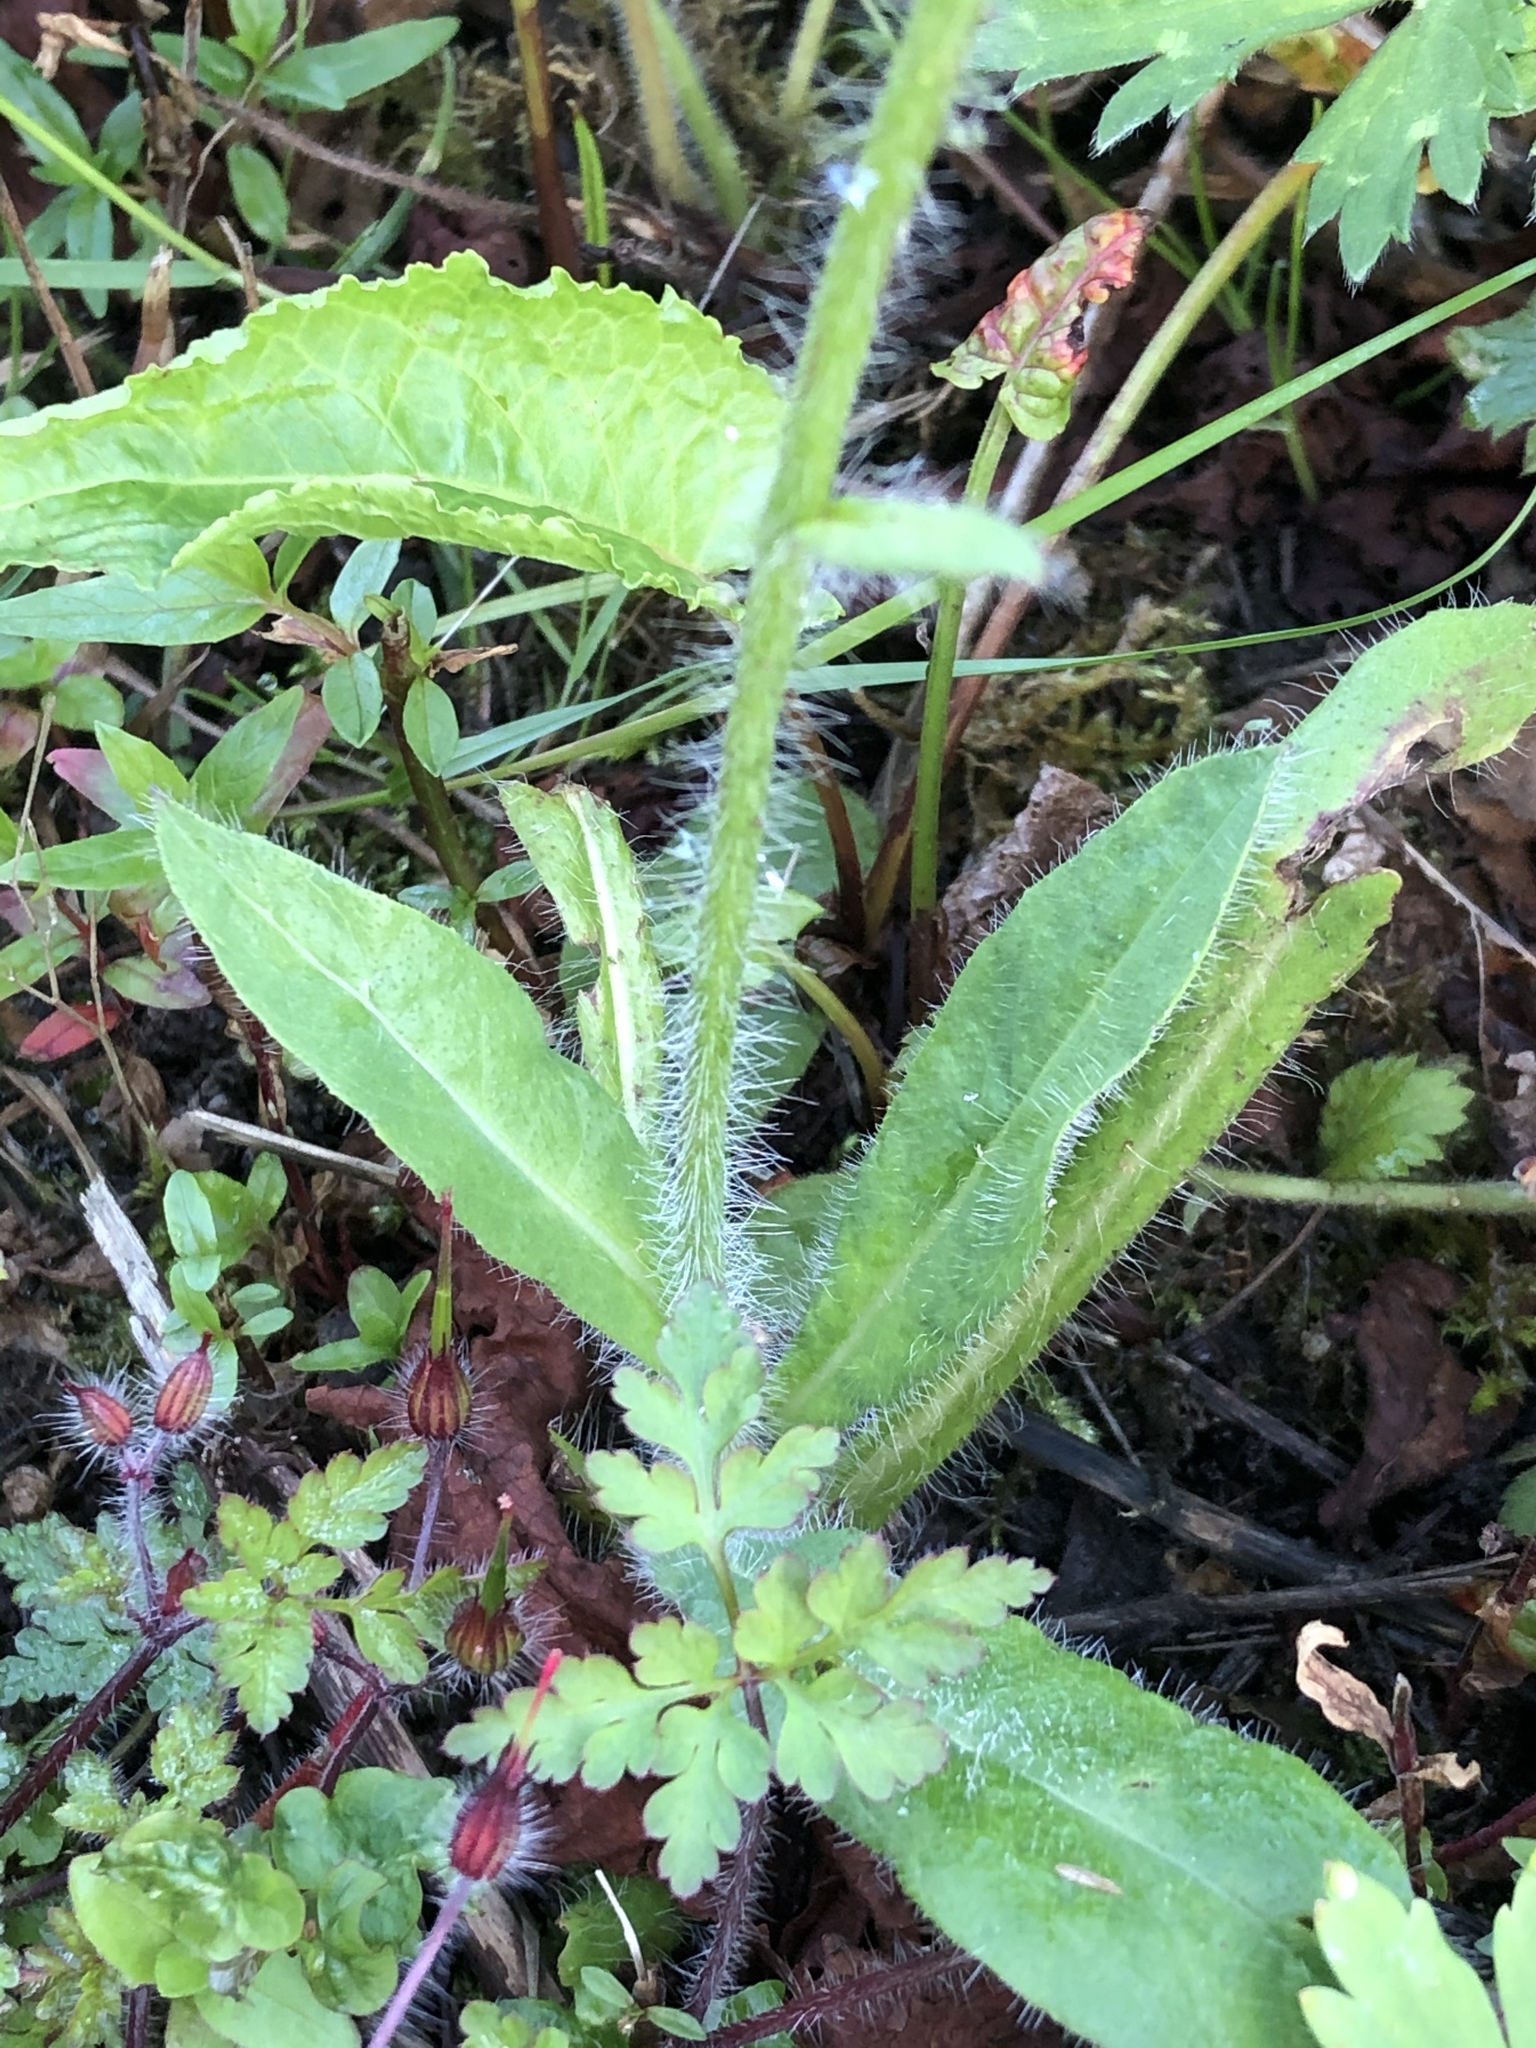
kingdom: Plantae
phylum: Tracheophyta
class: Magnoliopsida
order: Asterales
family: Asteraceae
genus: Pilosella
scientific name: Pilosella aurantiaca
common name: Fox-and-cubs
